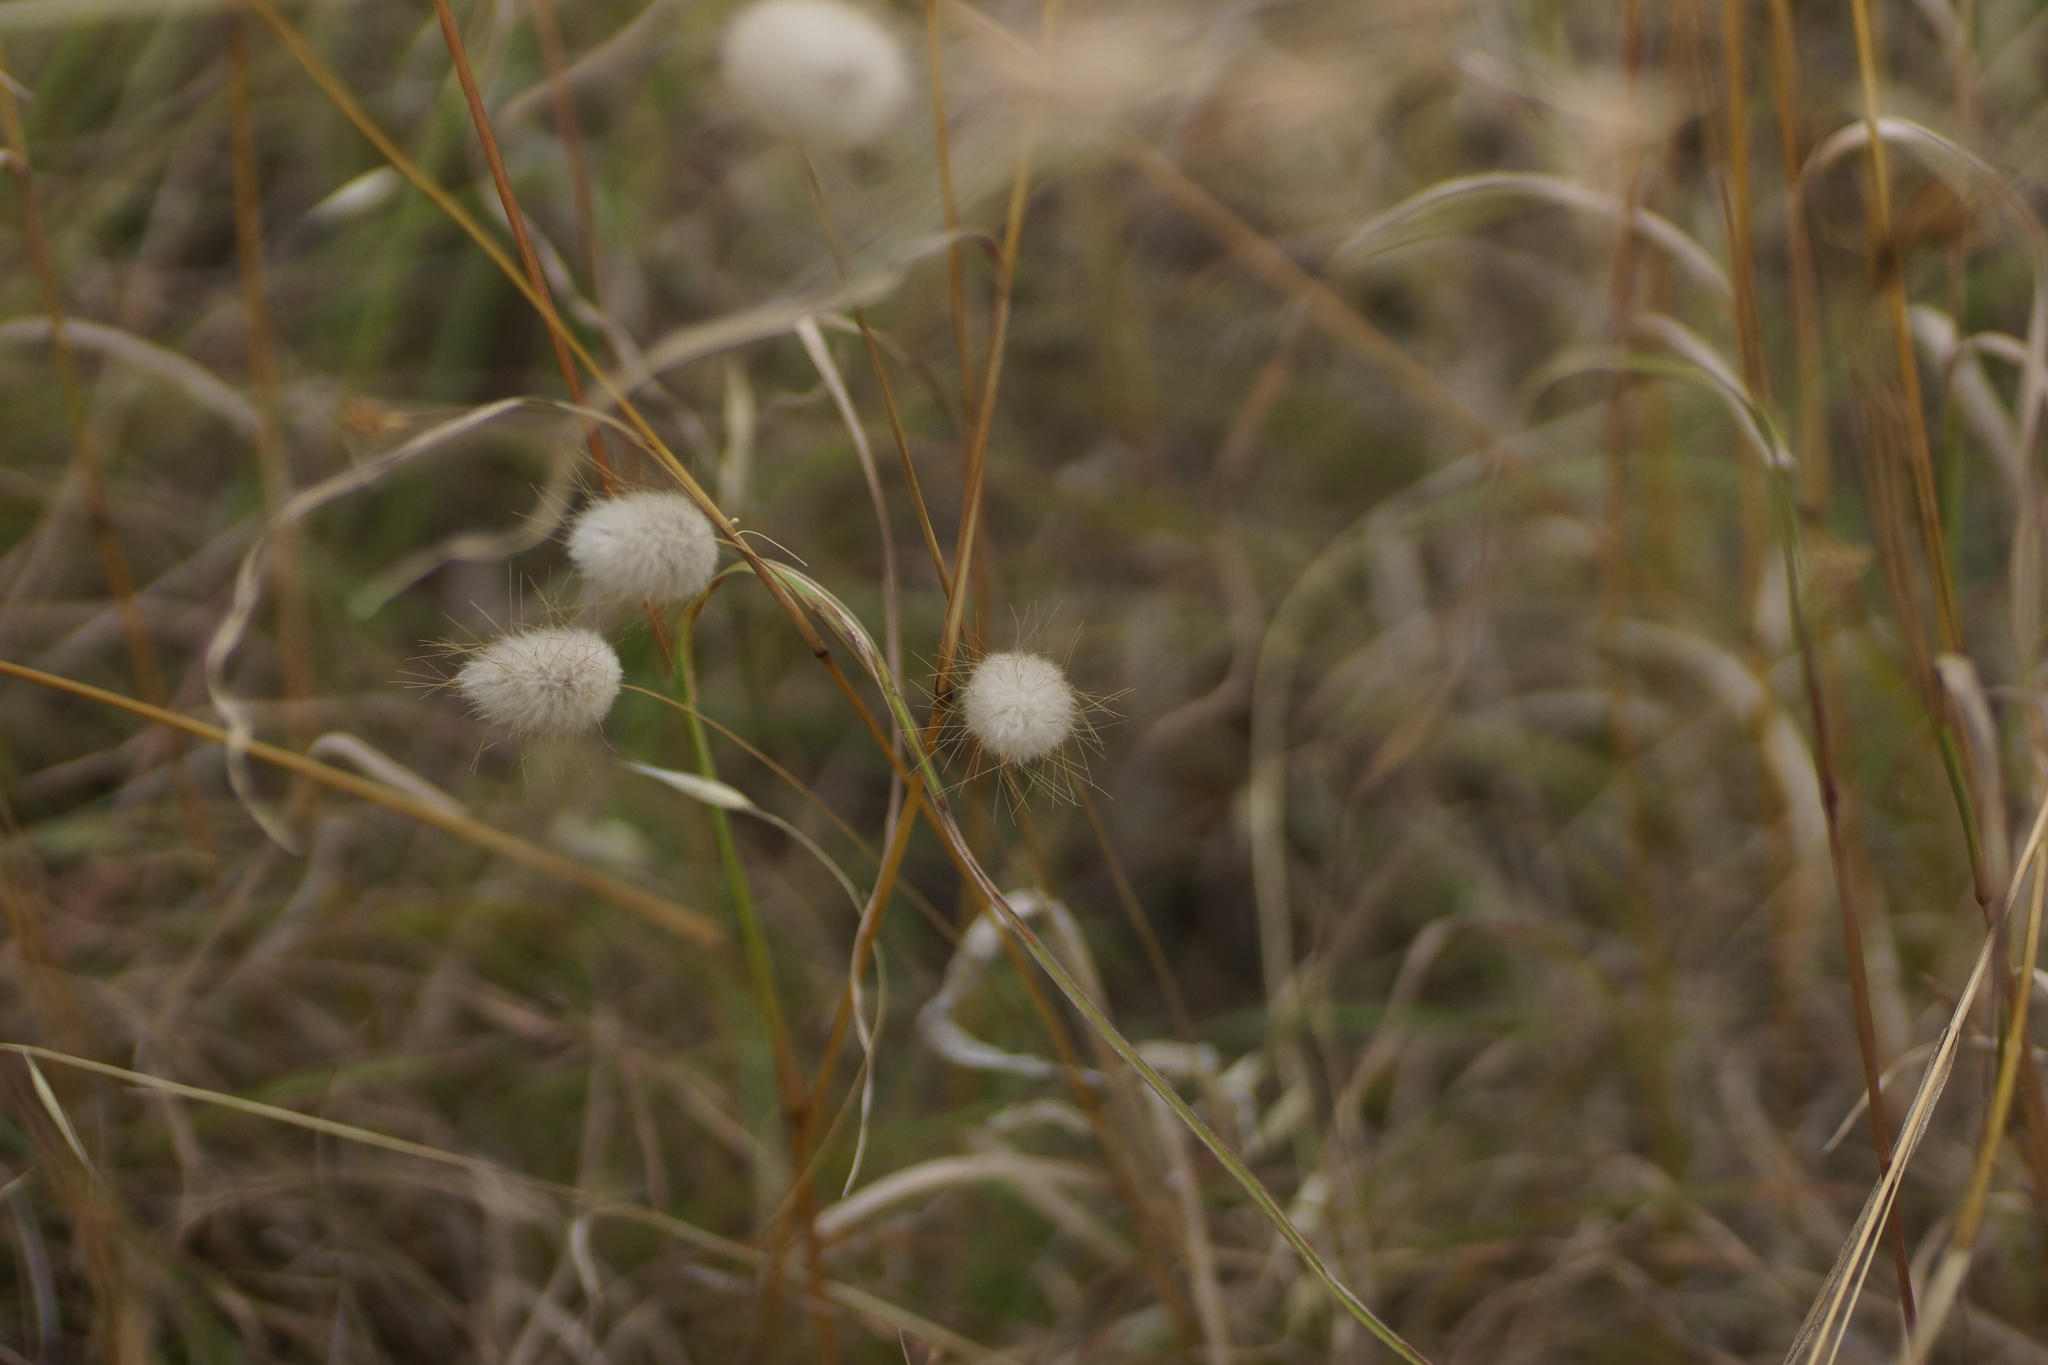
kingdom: Plantae
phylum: Tracheophyta
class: Liliopsida
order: Poales
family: Poaceae
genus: Lagurus
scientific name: Lagurus ovatus
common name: Hare's-tail
